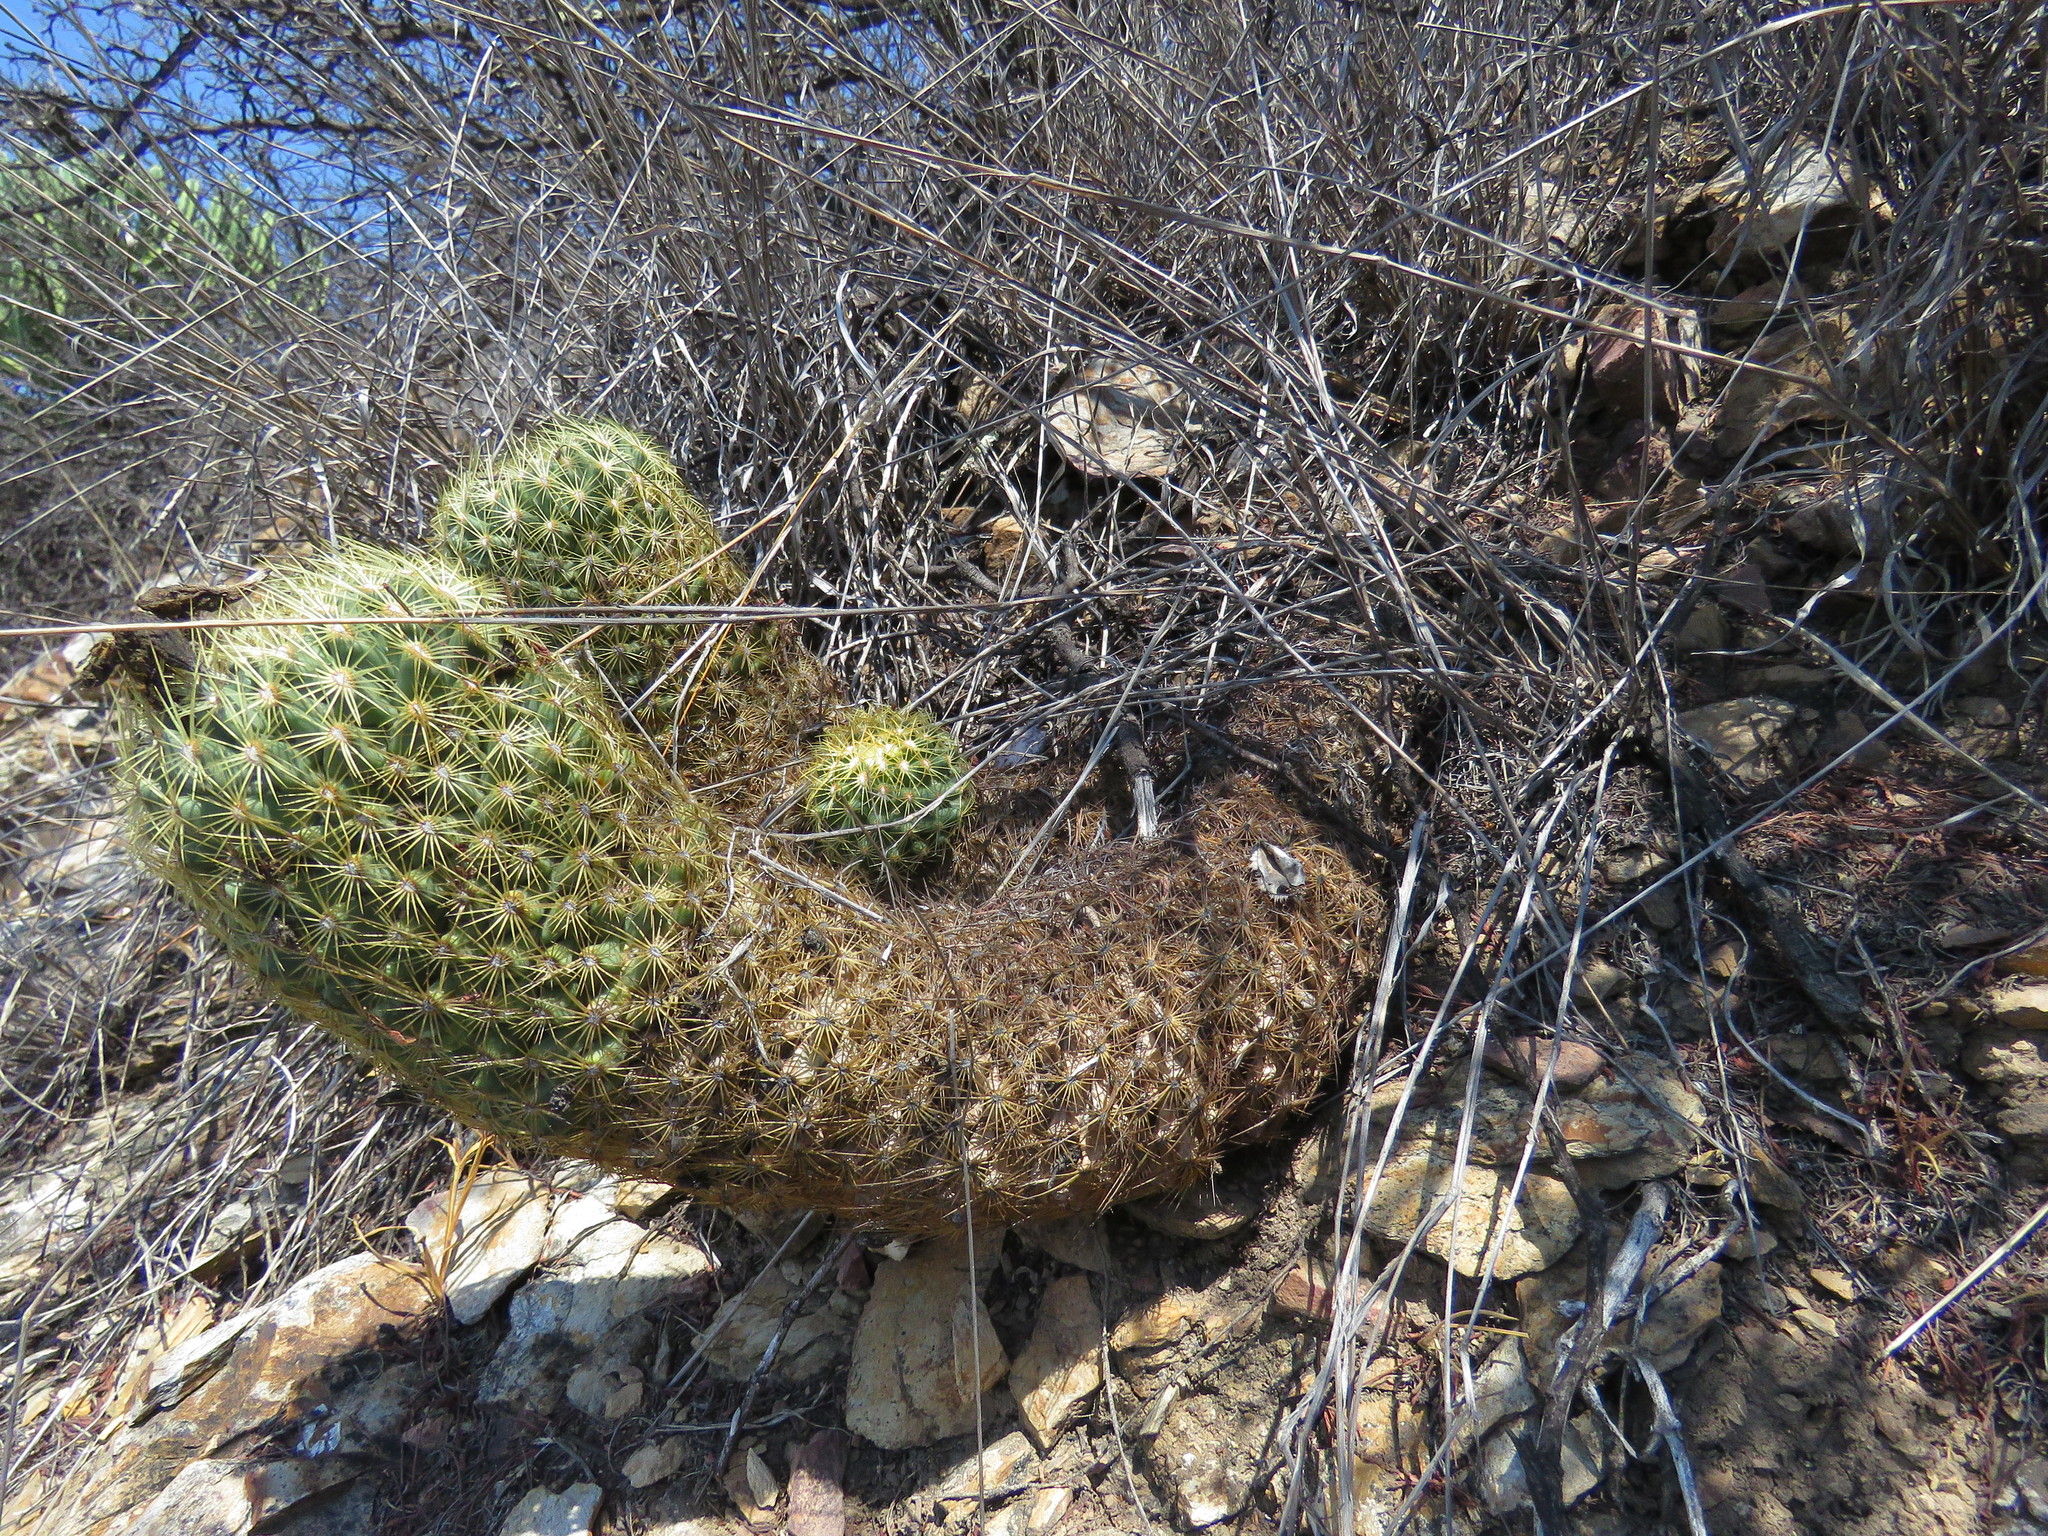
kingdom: Plantae
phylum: Tracheophyta
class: Magnoliopsida
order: Caryophyllales
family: Cactaceae
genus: Coryphantha
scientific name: Coryphantha erecta
